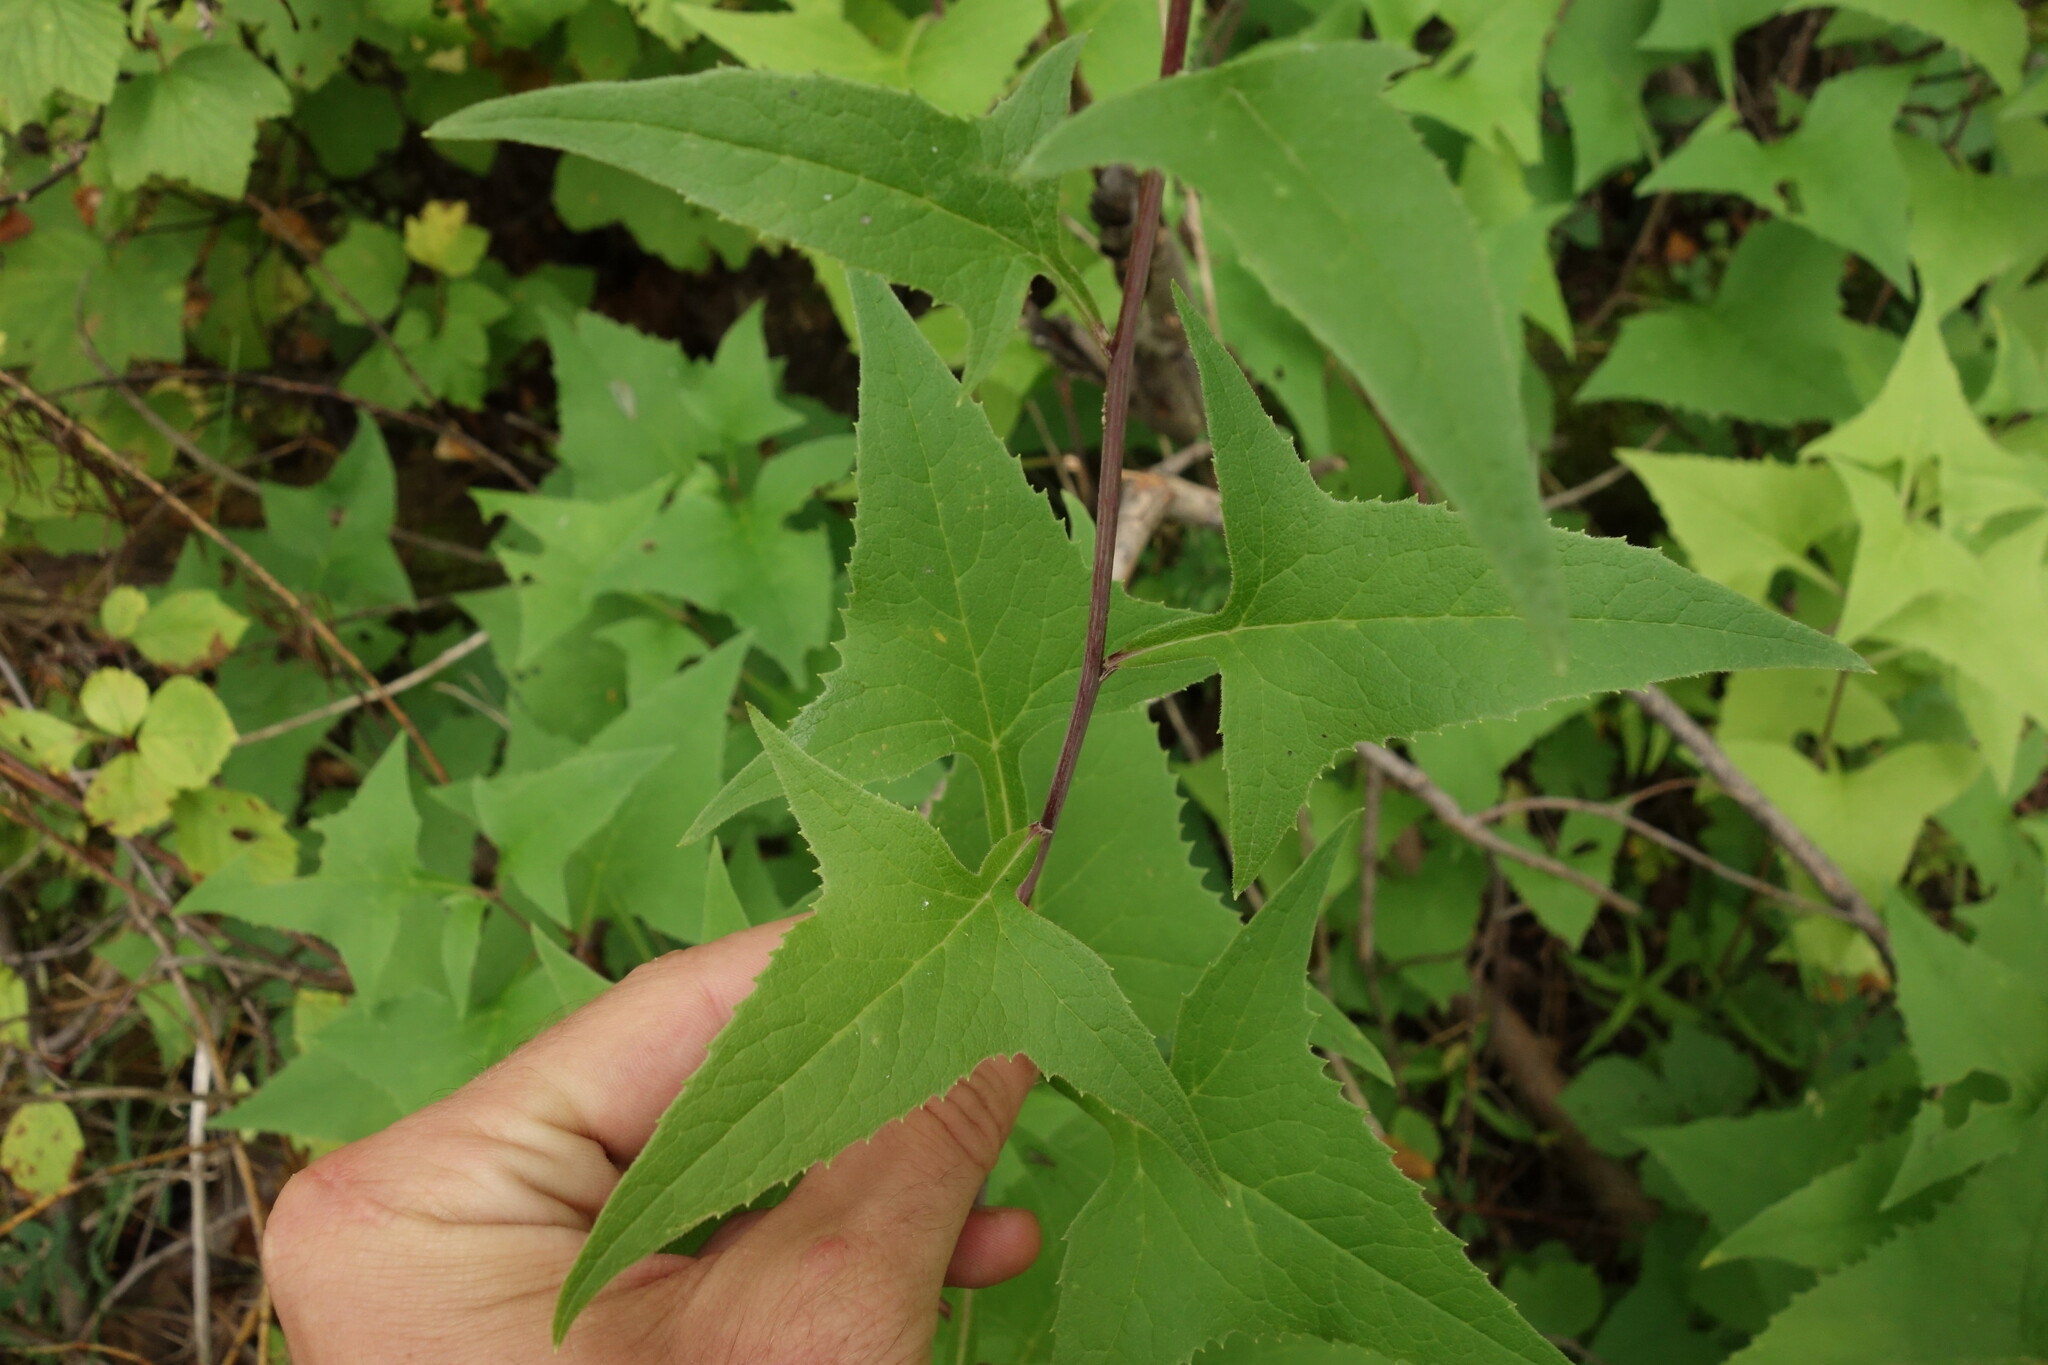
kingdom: Plantae
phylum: Tracheophyta
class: Magnoliopsida
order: Asterales
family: Asteraceae
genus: Parasenecio
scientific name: Parasenecio hastatus
